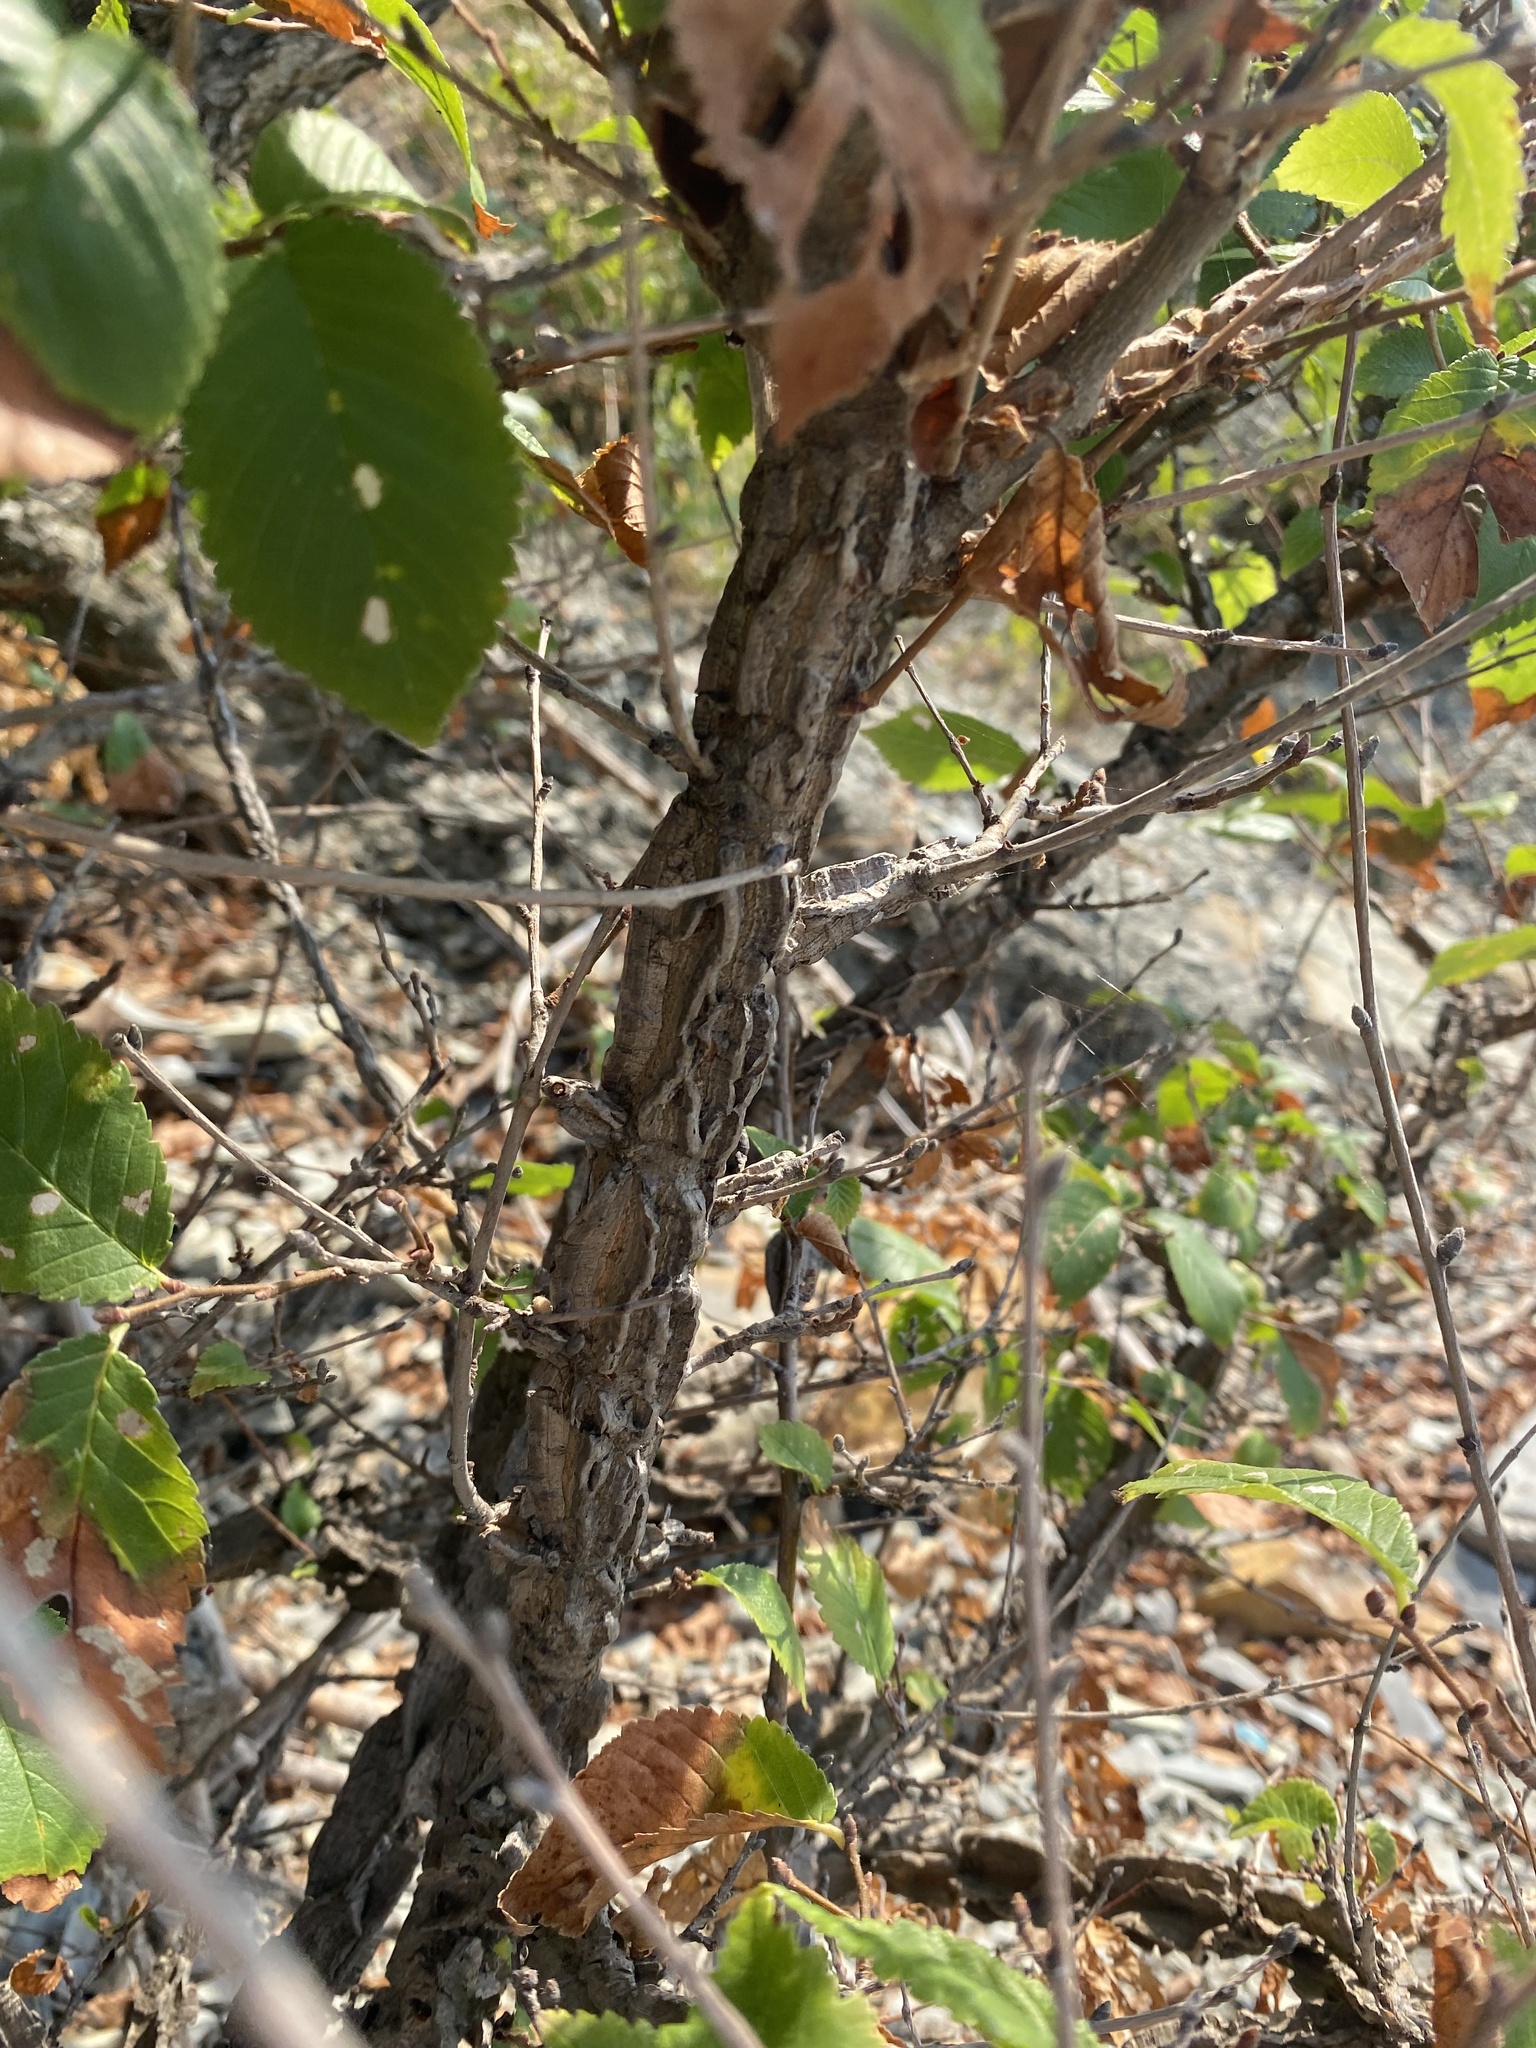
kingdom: Plantae
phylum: Tracheophyta
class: Magnoliopsida
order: Rosales
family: Ulmaceae
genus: Ulmus
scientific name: Ulmus minor
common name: Small-leaved elm
